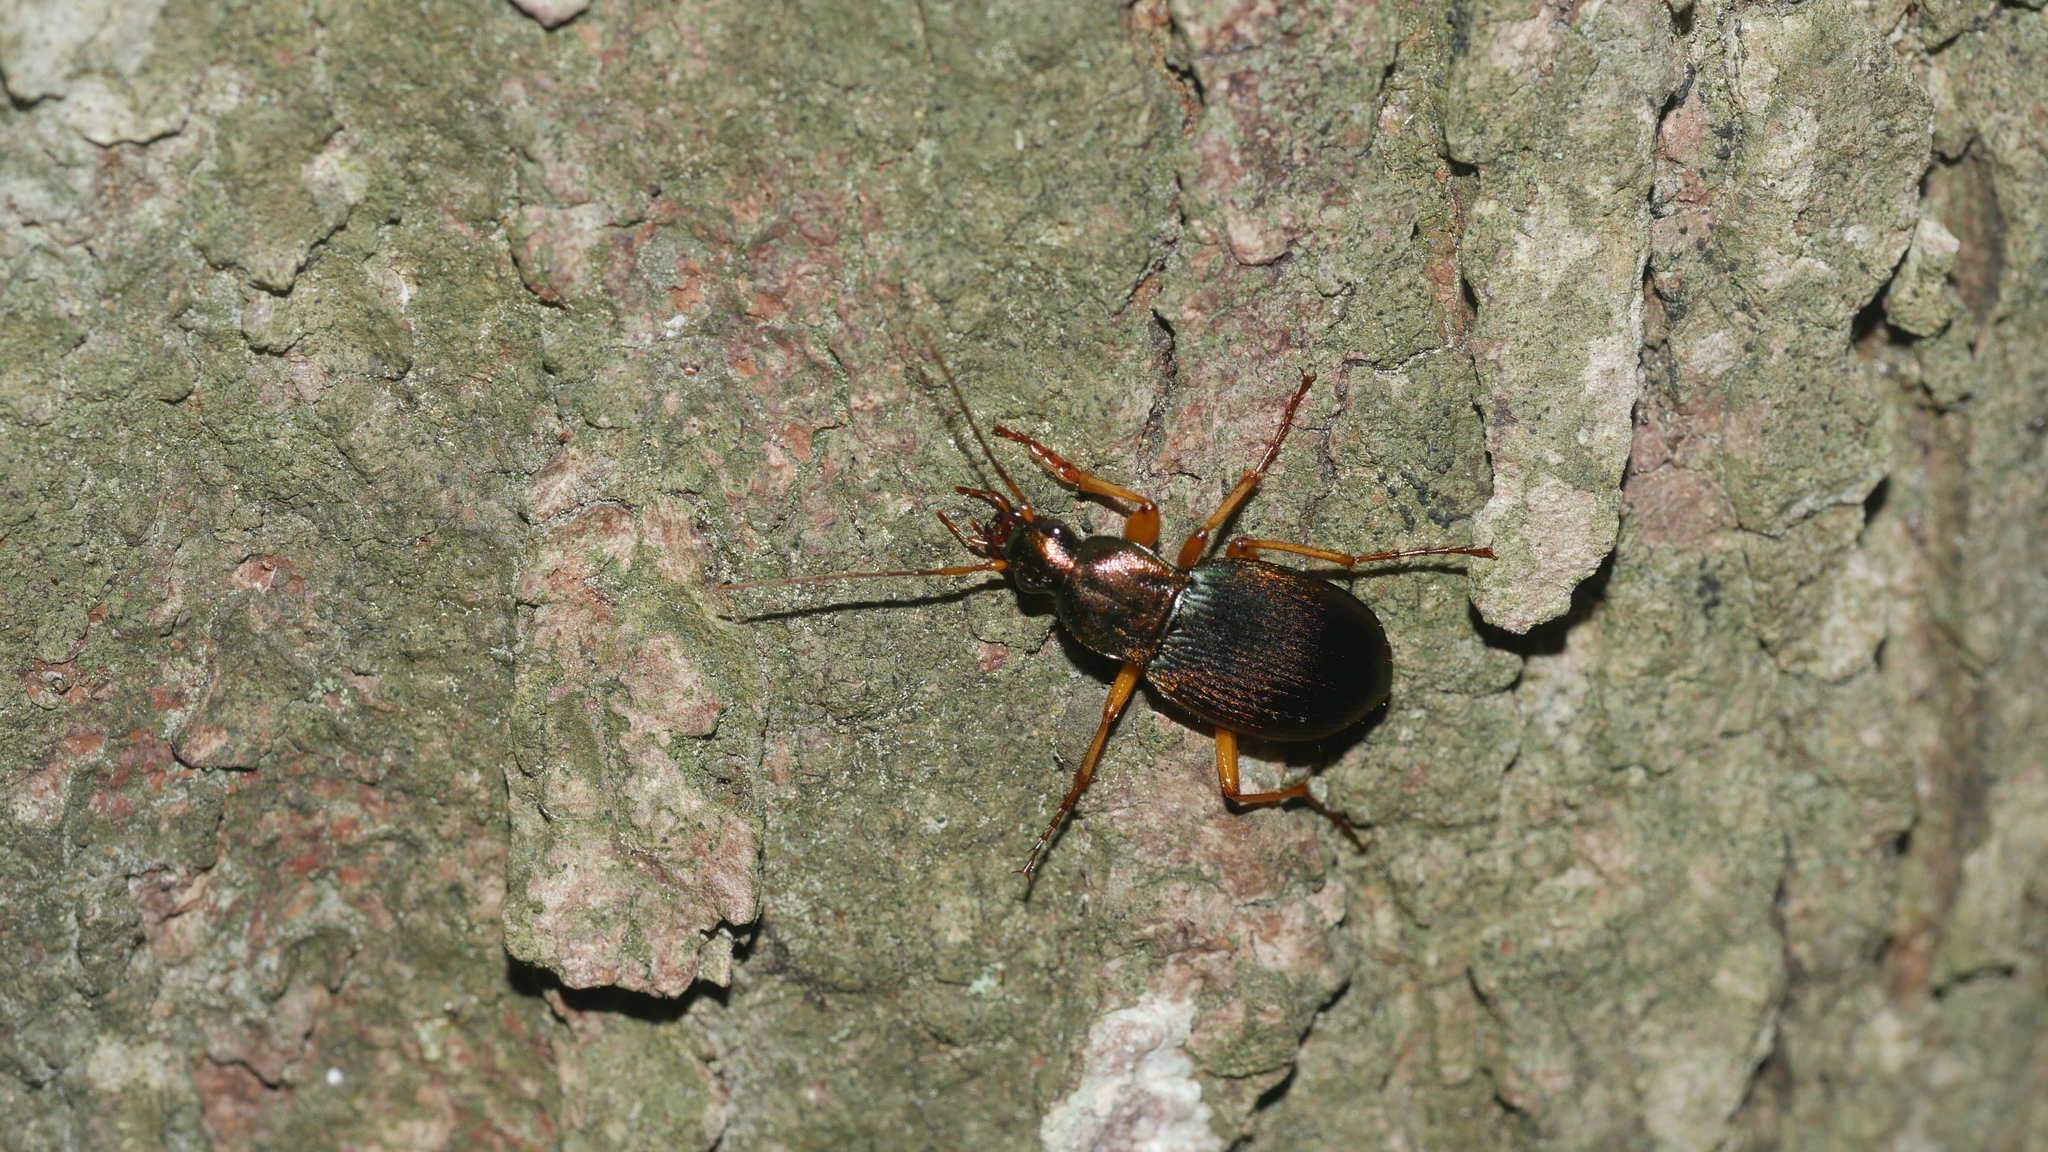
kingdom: Animalia
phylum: Arthropoda
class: Insecta
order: Coleoptera
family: Carabidae
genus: Chlaenius
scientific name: Chlaenius aestivus
